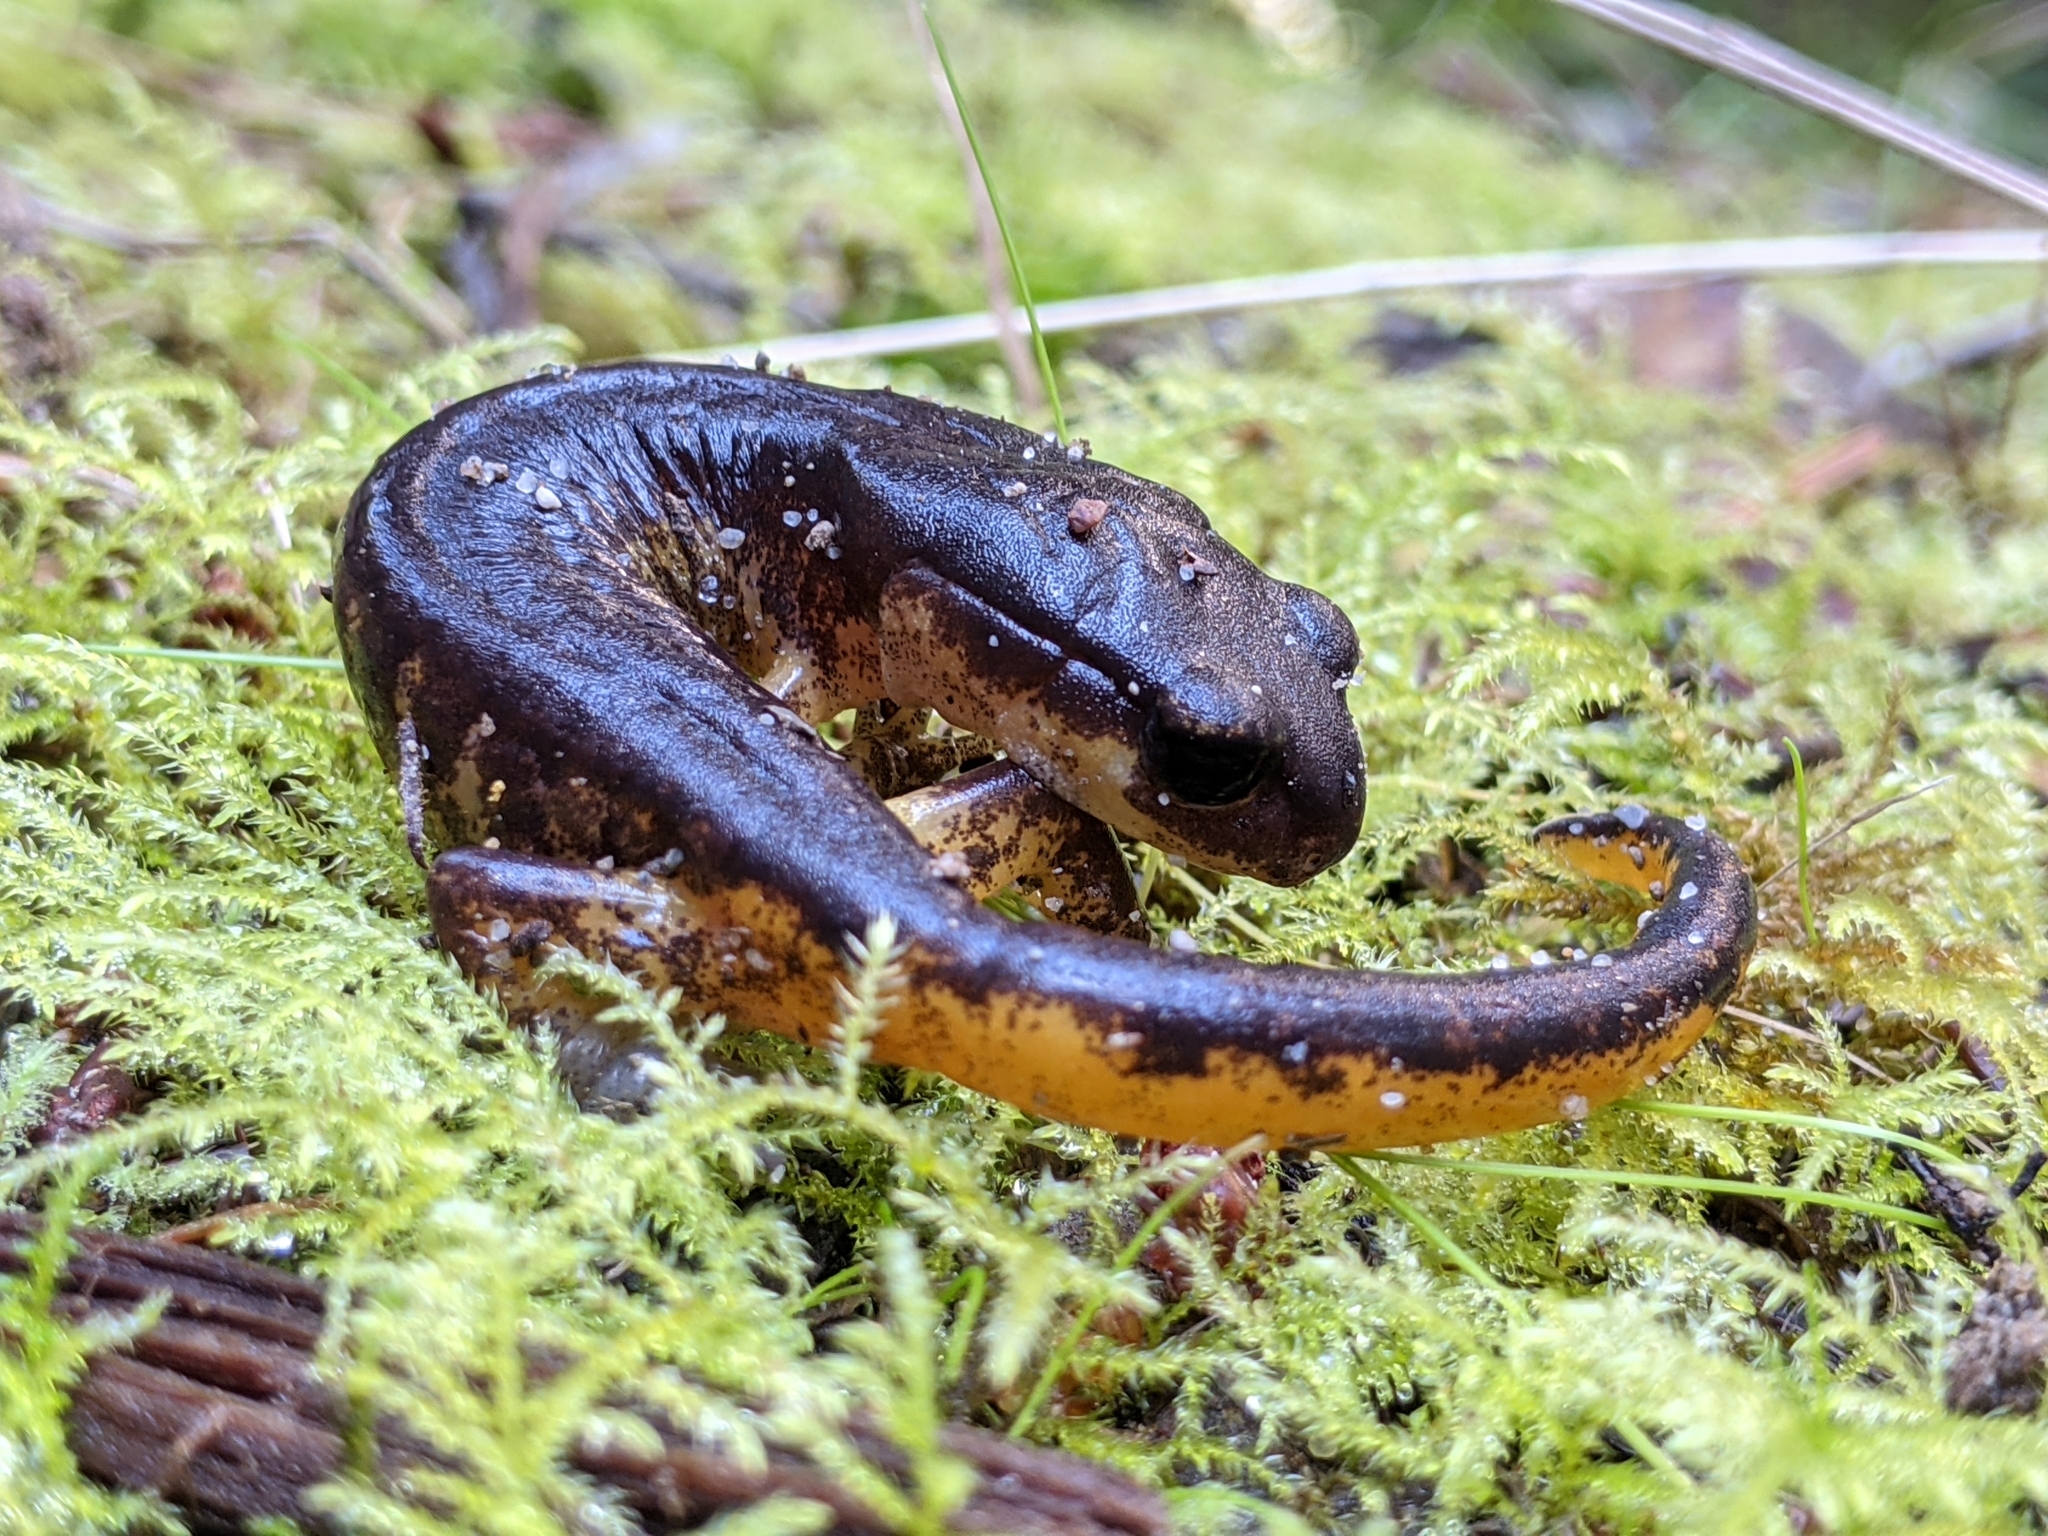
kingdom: Animalia
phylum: Chordata
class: Amphibia
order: Caudata
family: Plethodontidae
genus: Ensatina
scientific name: Ensatina eschscholtzii
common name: Ensatina
